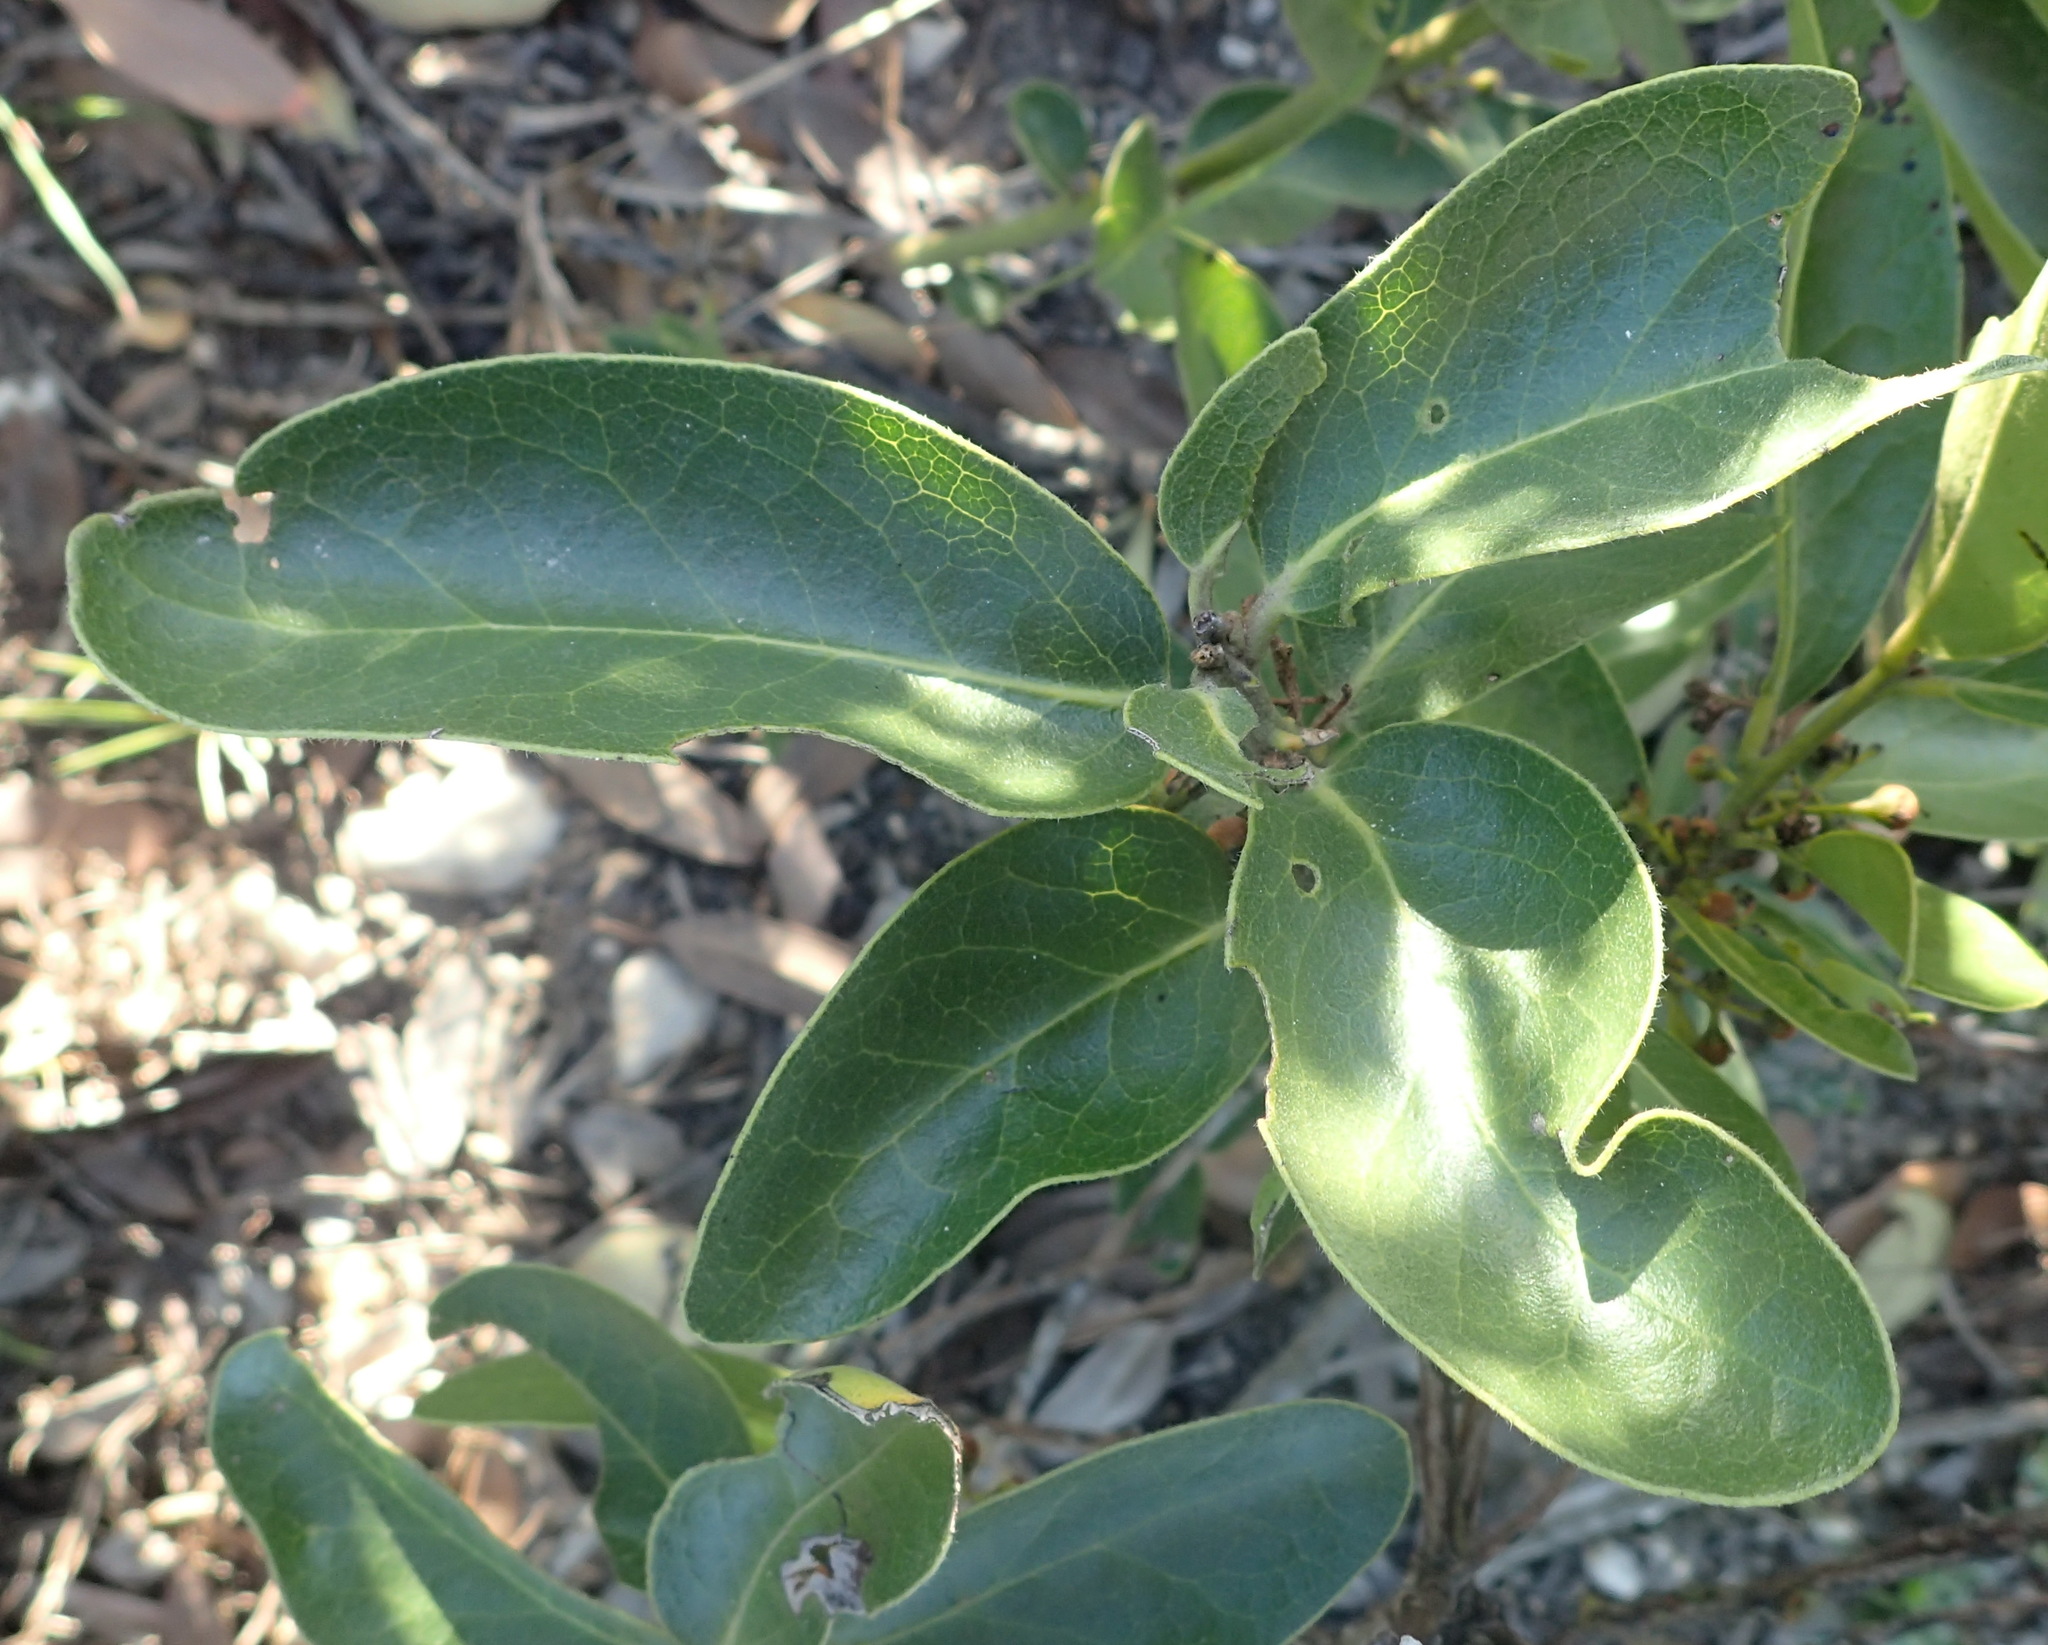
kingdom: Plantae
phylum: Tracheophyta
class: Magnoliopsida
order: Ericales
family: Ebenaceae
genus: Euclea
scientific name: Euclea polyandra
